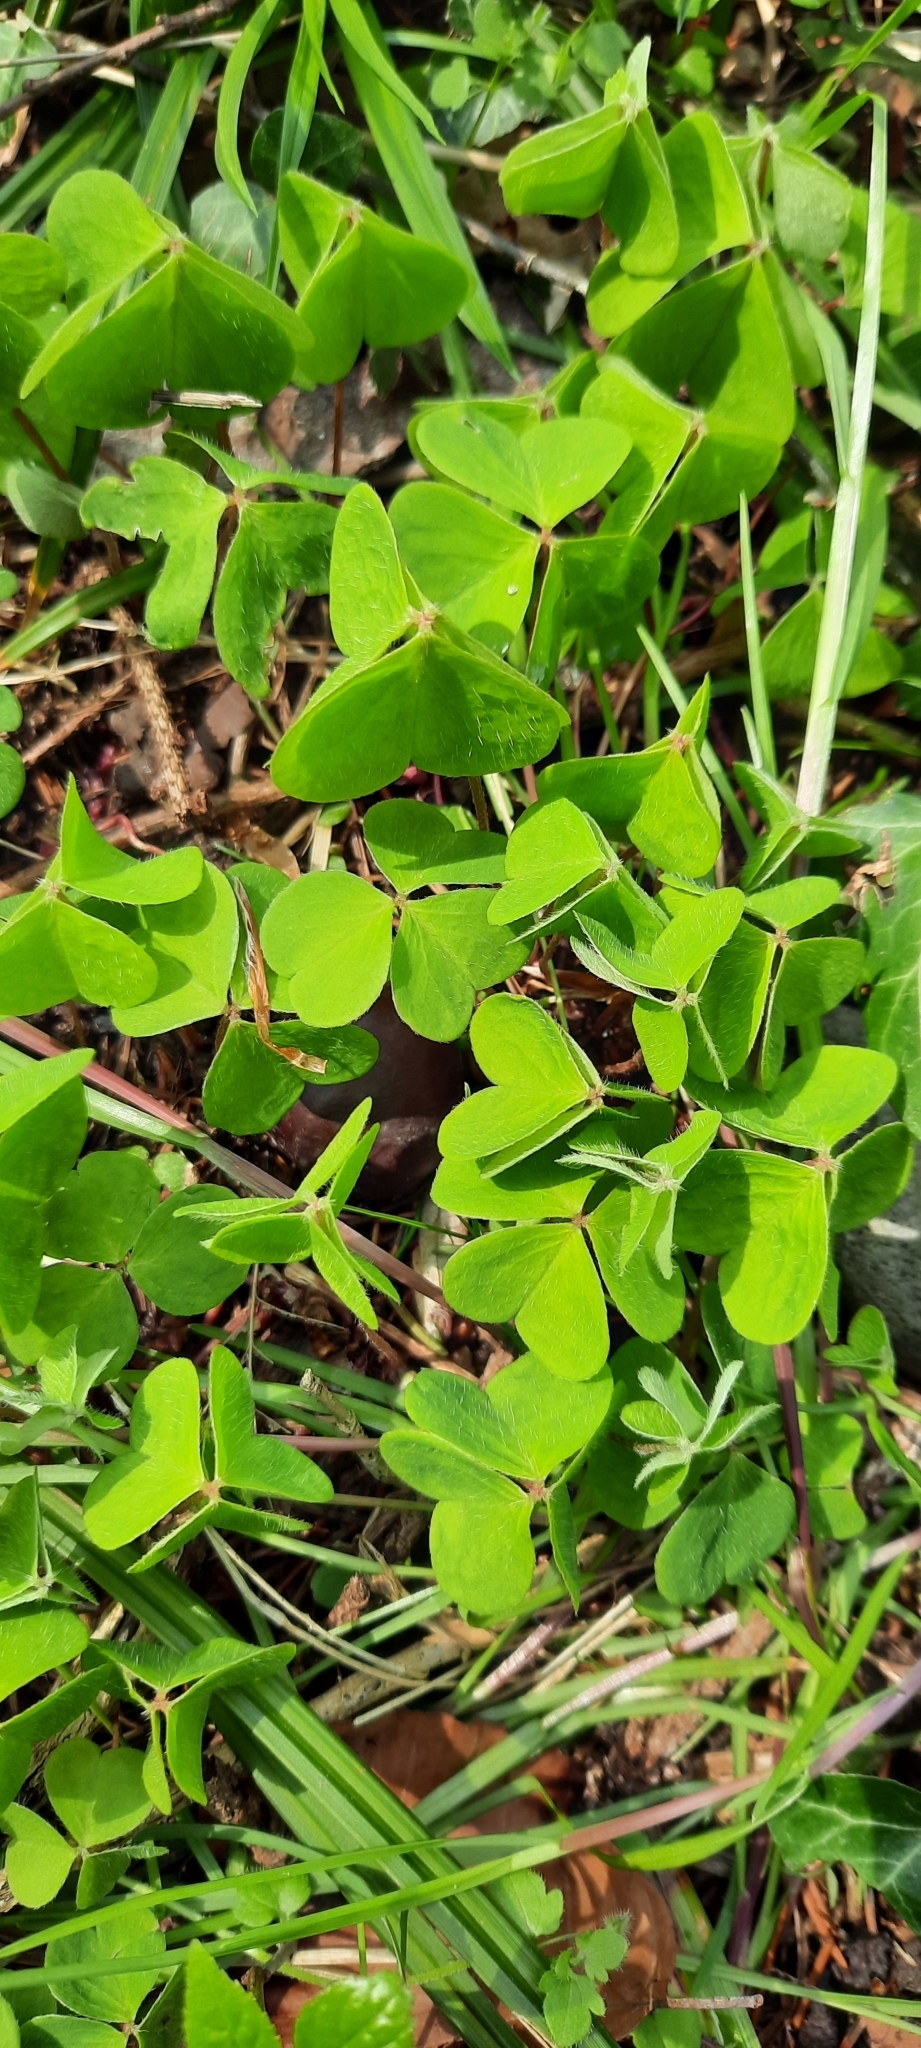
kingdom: Plantae
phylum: Tracheophyta
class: Magnoliopsida
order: Oxalidales
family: Oxalidaceae
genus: Oxalis
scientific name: Oxalis acetosella
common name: Wood-sorrel
